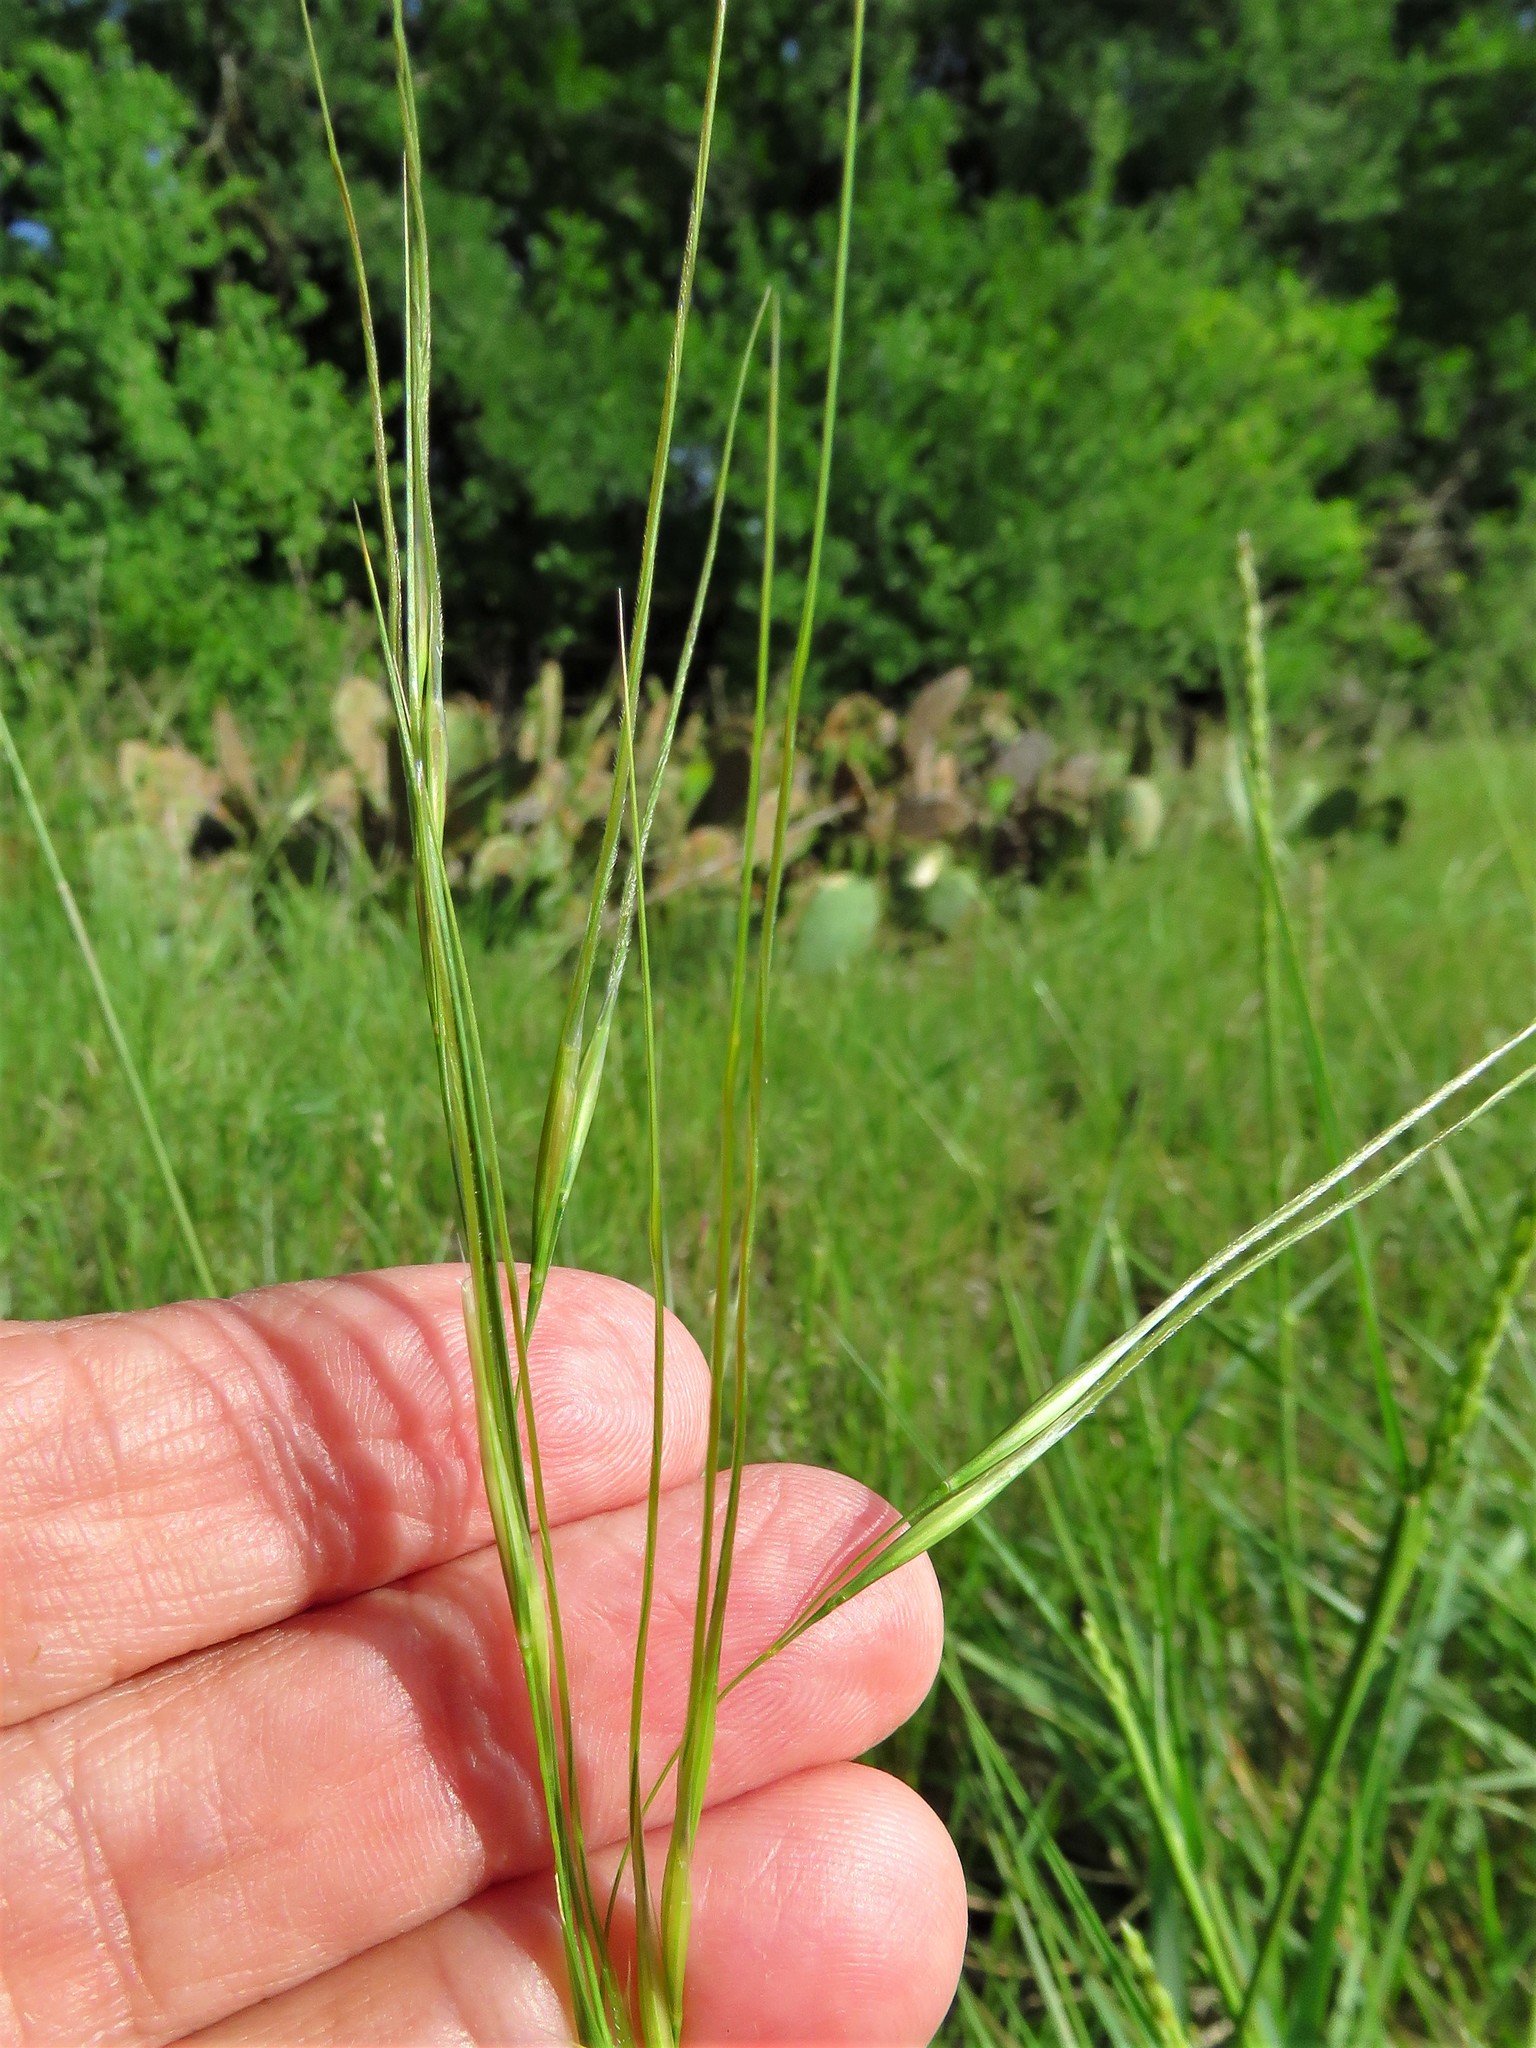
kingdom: Plantae
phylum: Tracheophyta
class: Liliopsida
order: Poales
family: Poaceae
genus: Nassella
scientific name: Nassella leucotricha
